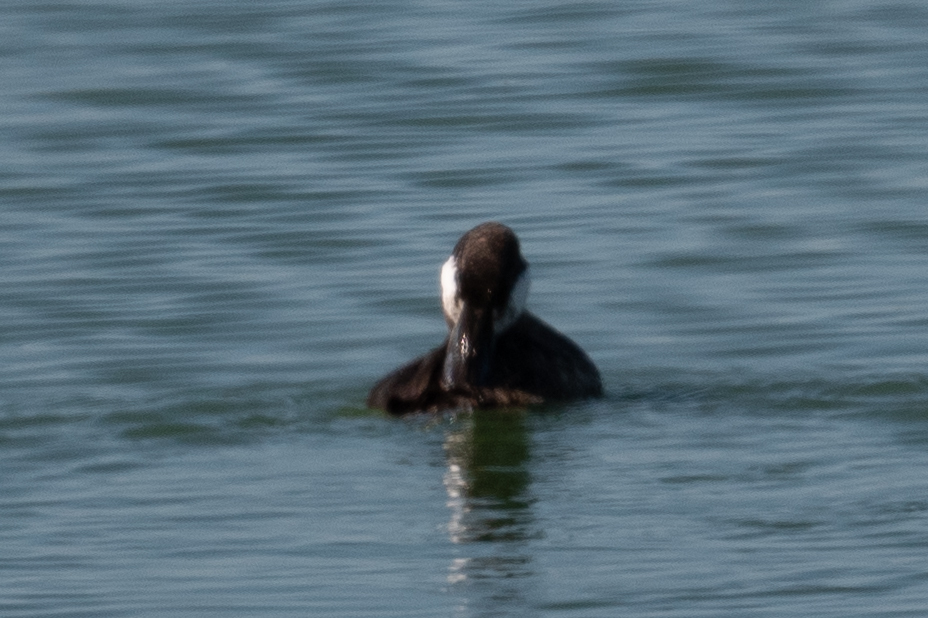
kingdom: Animalia
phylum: Chordata
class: Aves
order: Anseriformes
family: Anatidae
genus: Oxyura
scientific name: Oxyura jamaicensis
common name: Ruddy duck
